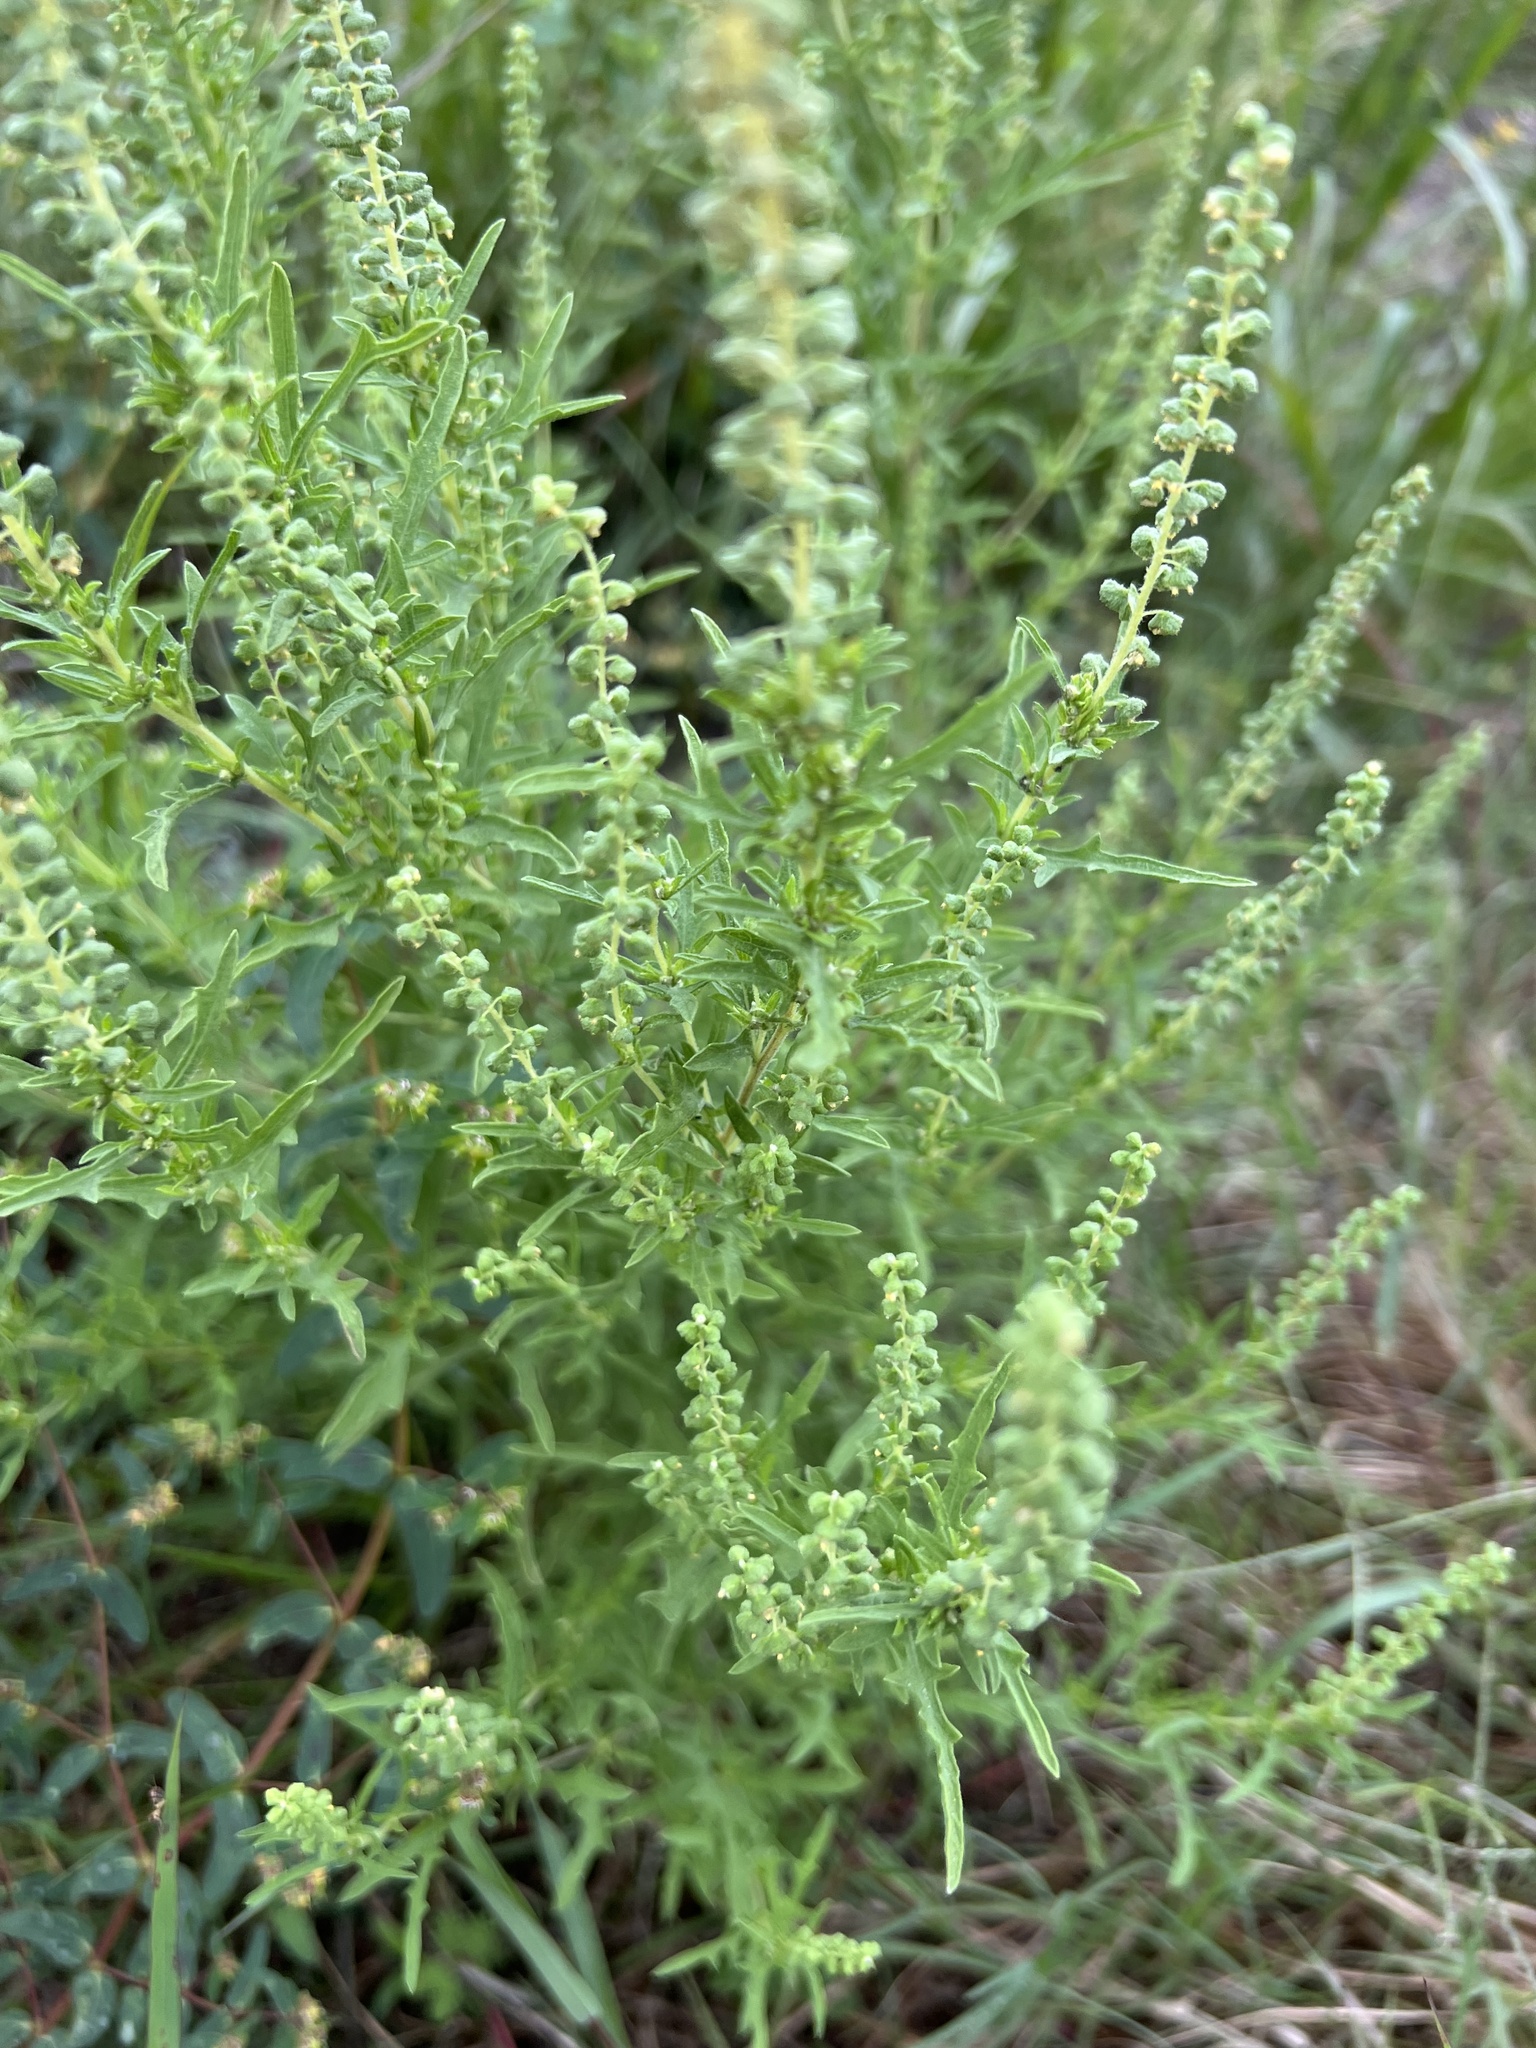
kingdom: Plantae
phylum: Tracheophyta
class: Magnoliopsida
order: Asterales
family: Asteraceae
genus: Ambrosia
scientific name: Ambrosia psilostachya
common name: Perennial ragweed
